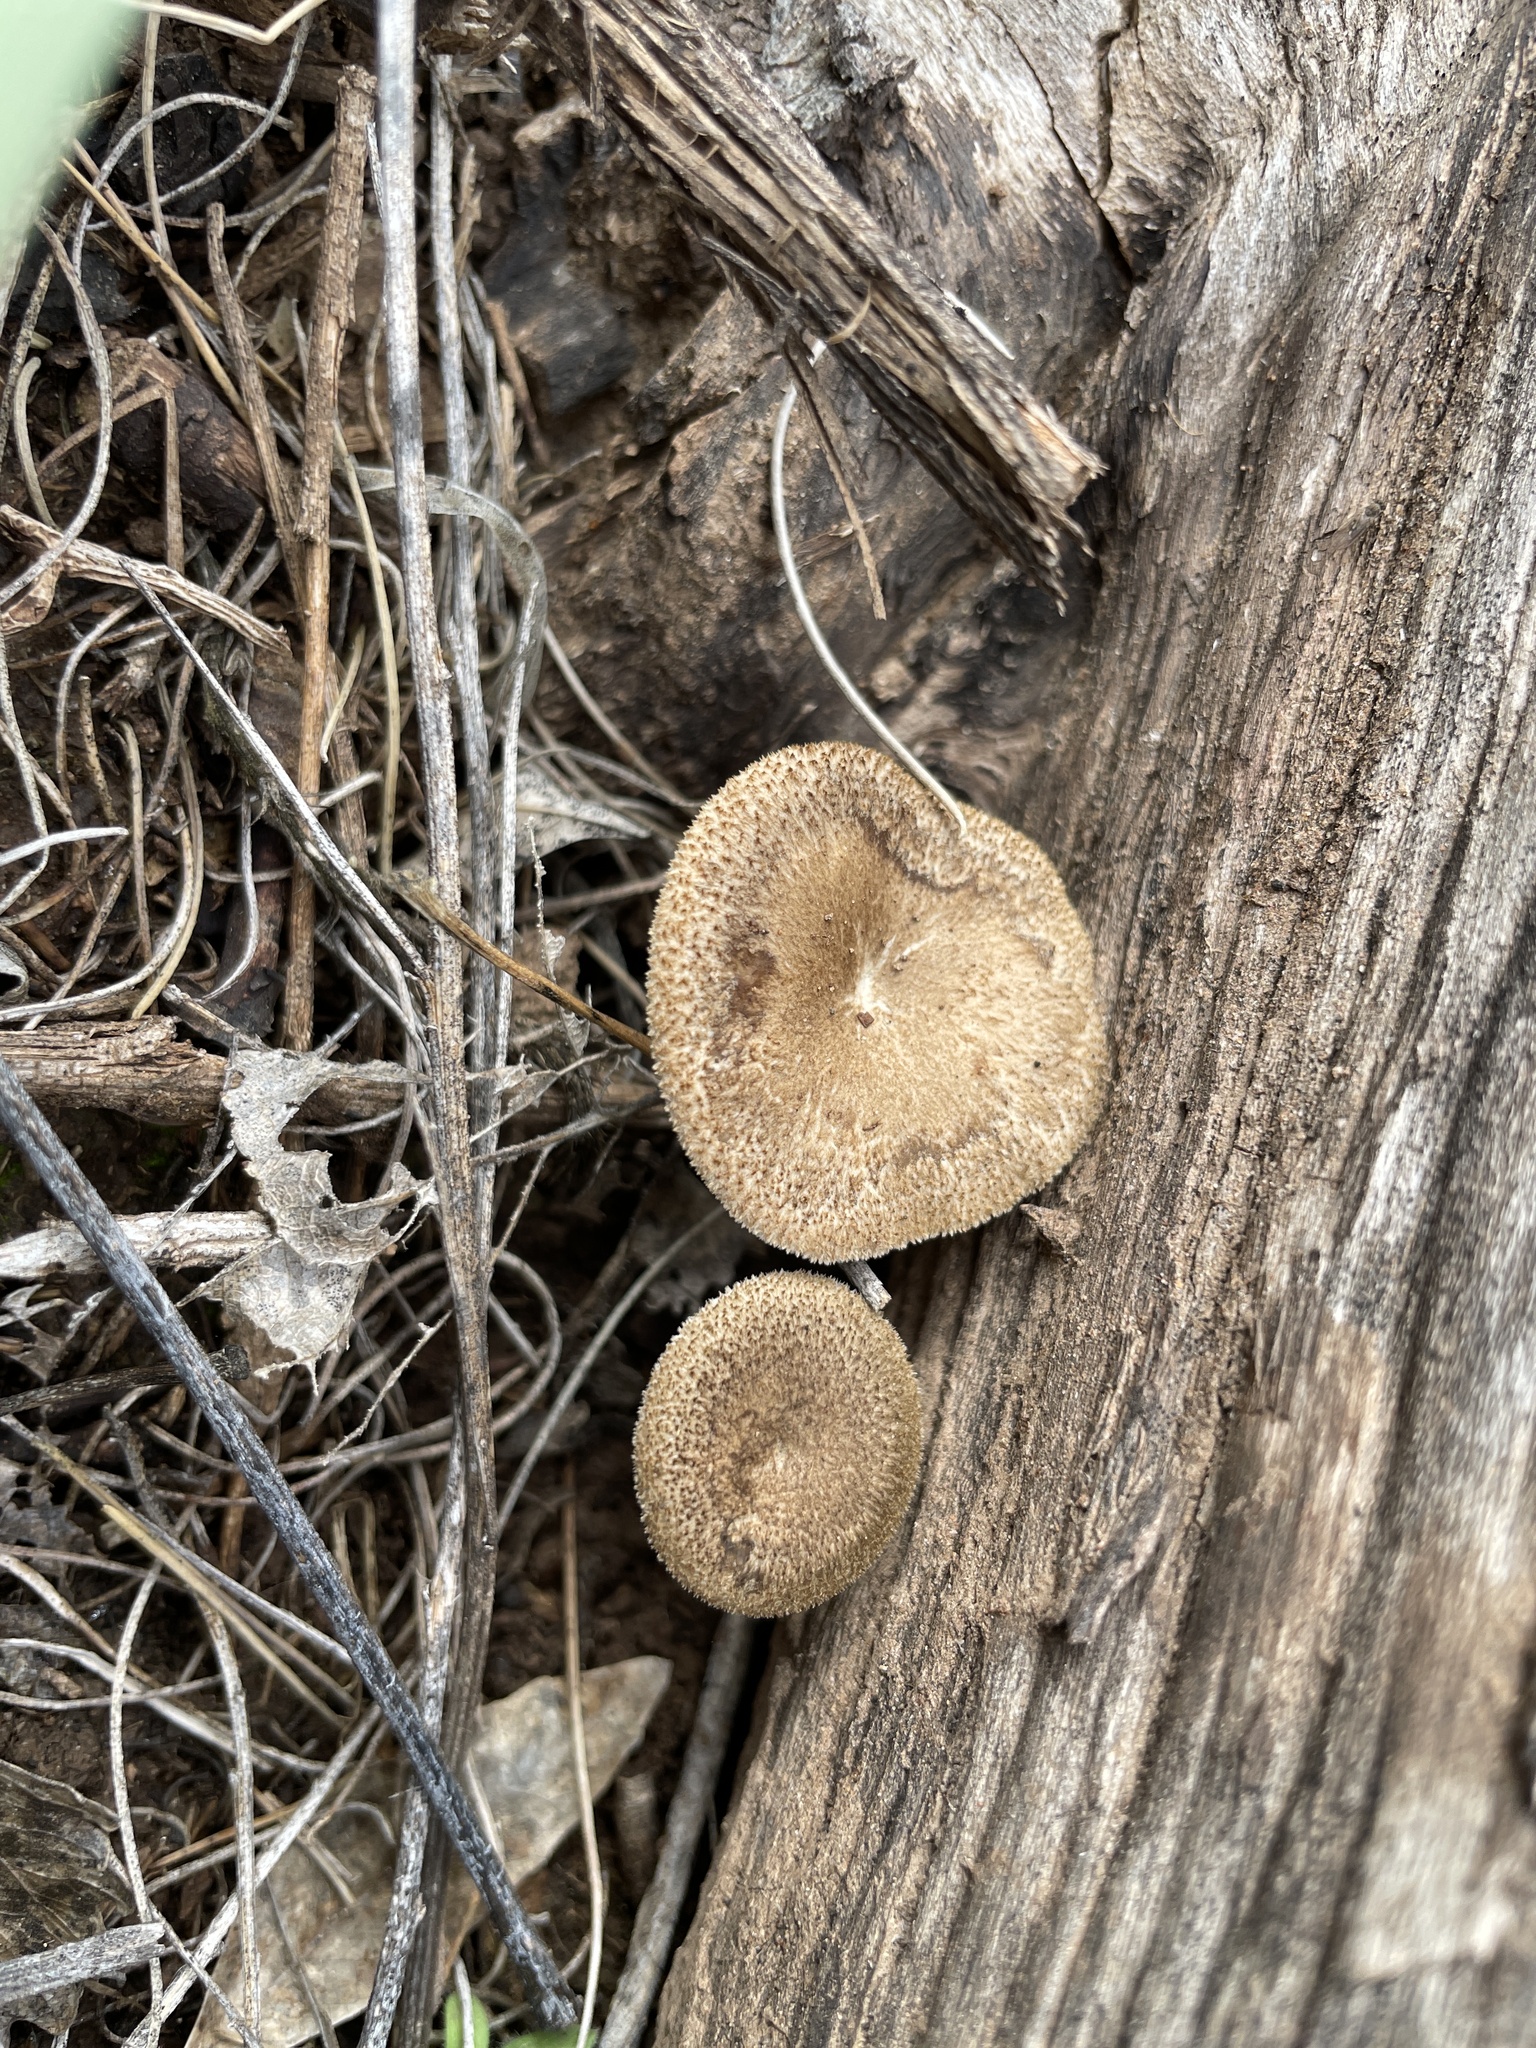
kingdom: Fungi
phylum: Basidiomycota
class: Agaricomycetes
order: Polyporales
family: Polyporaceae
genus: Lentinus
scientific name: Lentinus arcularius
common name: Spring polypore
